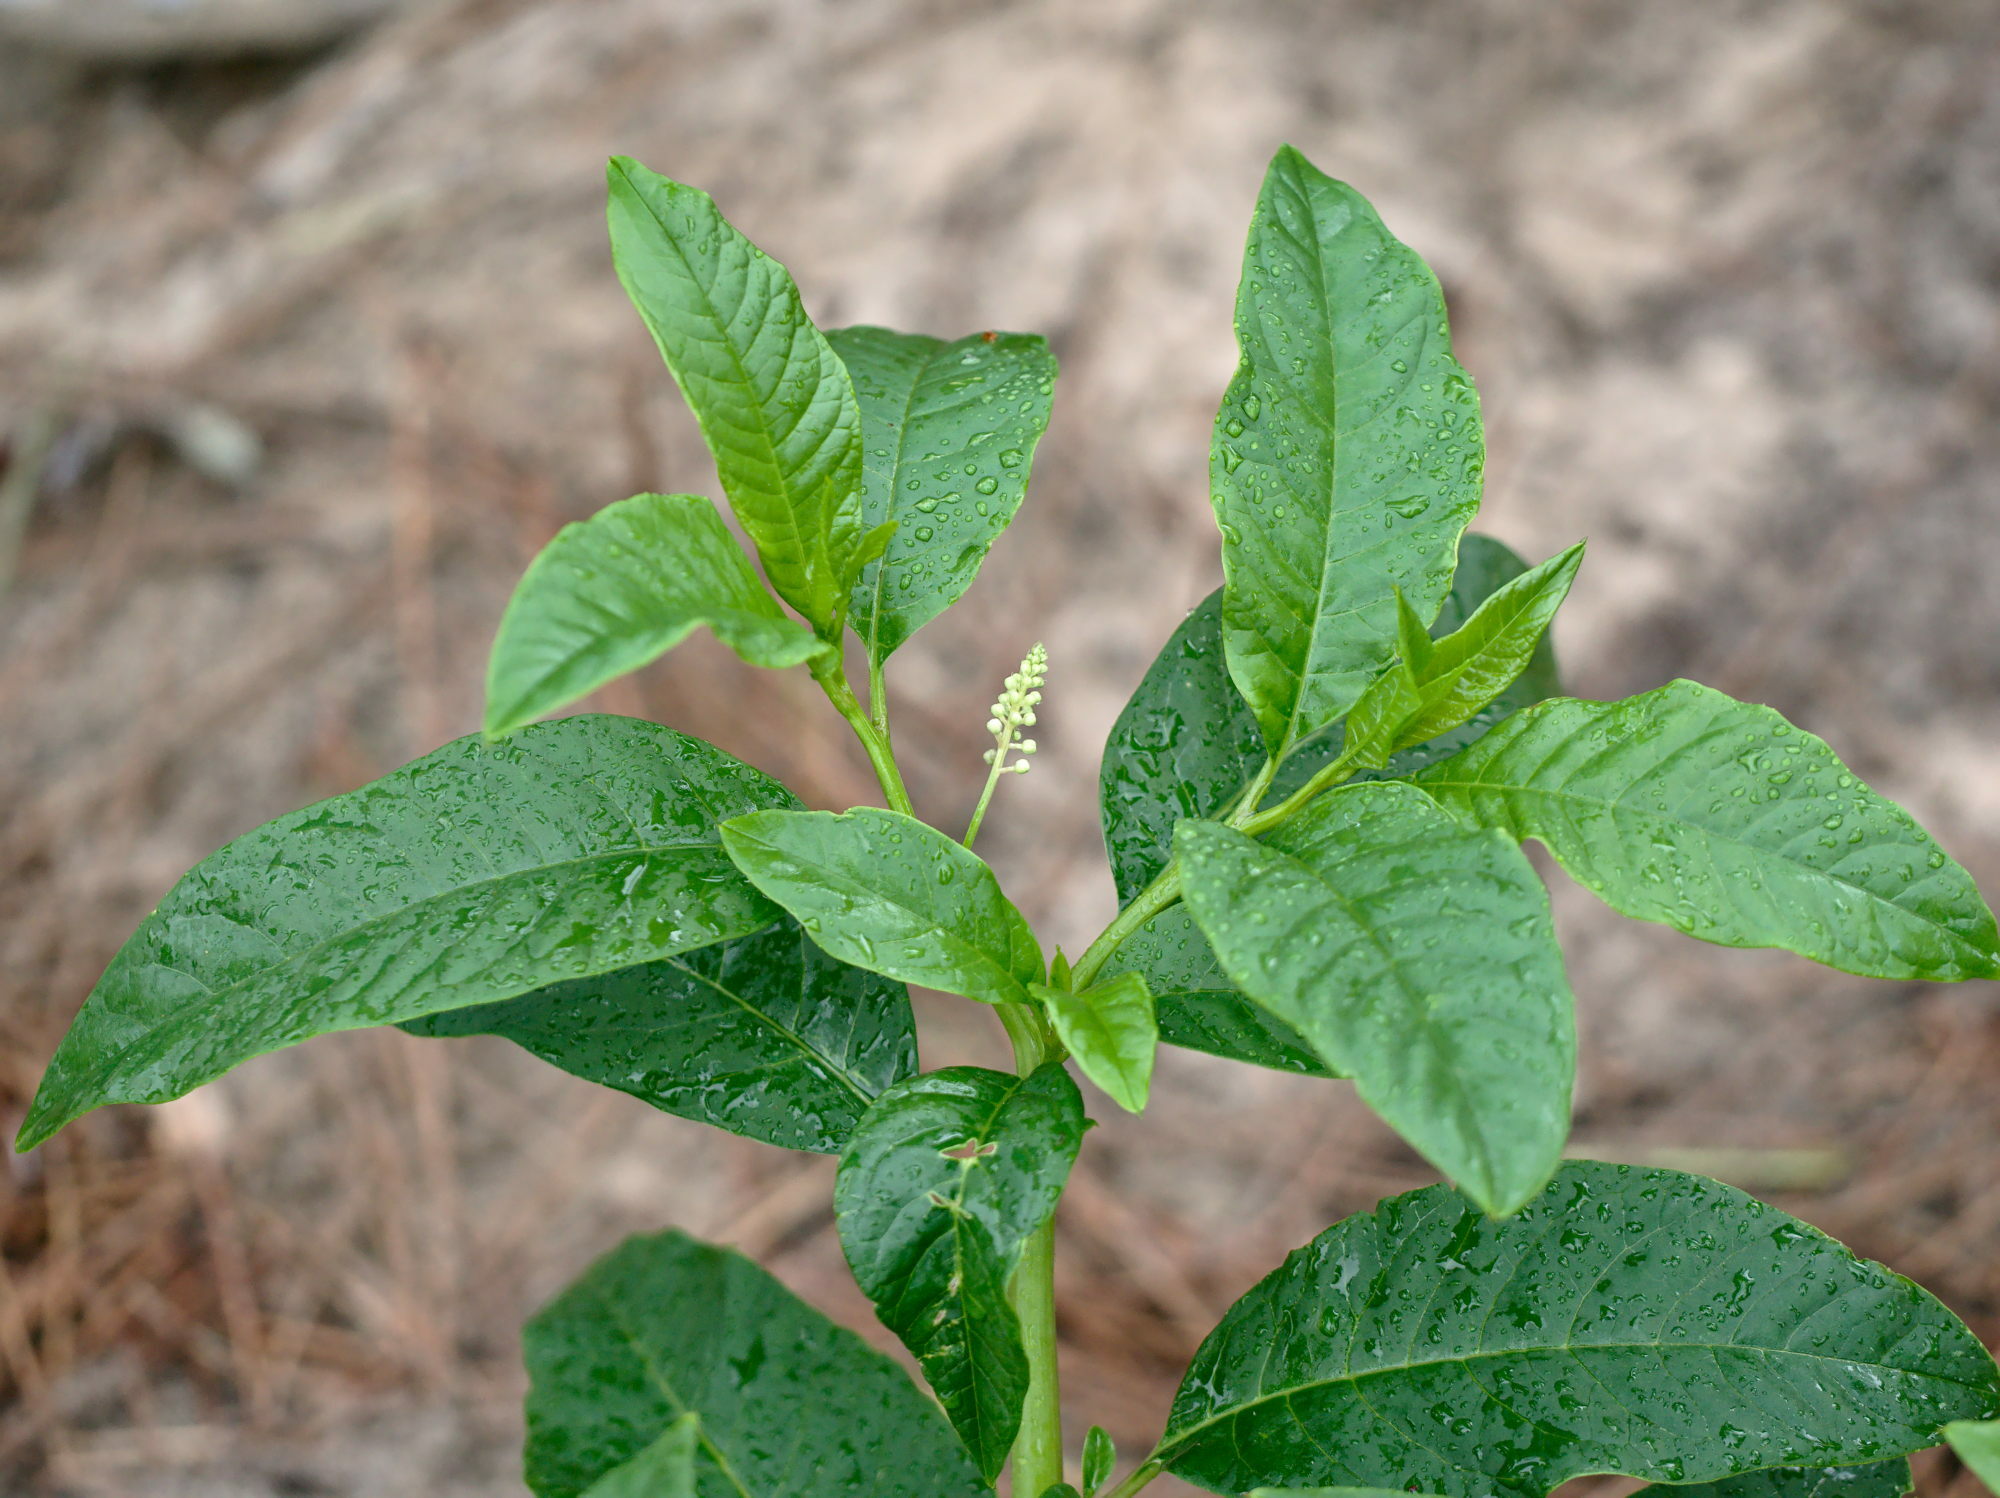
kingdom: Plantae
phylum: Tracheophyta
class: Magnoliopsida
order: Caryophyllales
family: Phytolaccaceae
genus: Phytolacca
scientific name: Phytolacca americana
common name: American pokeweed
